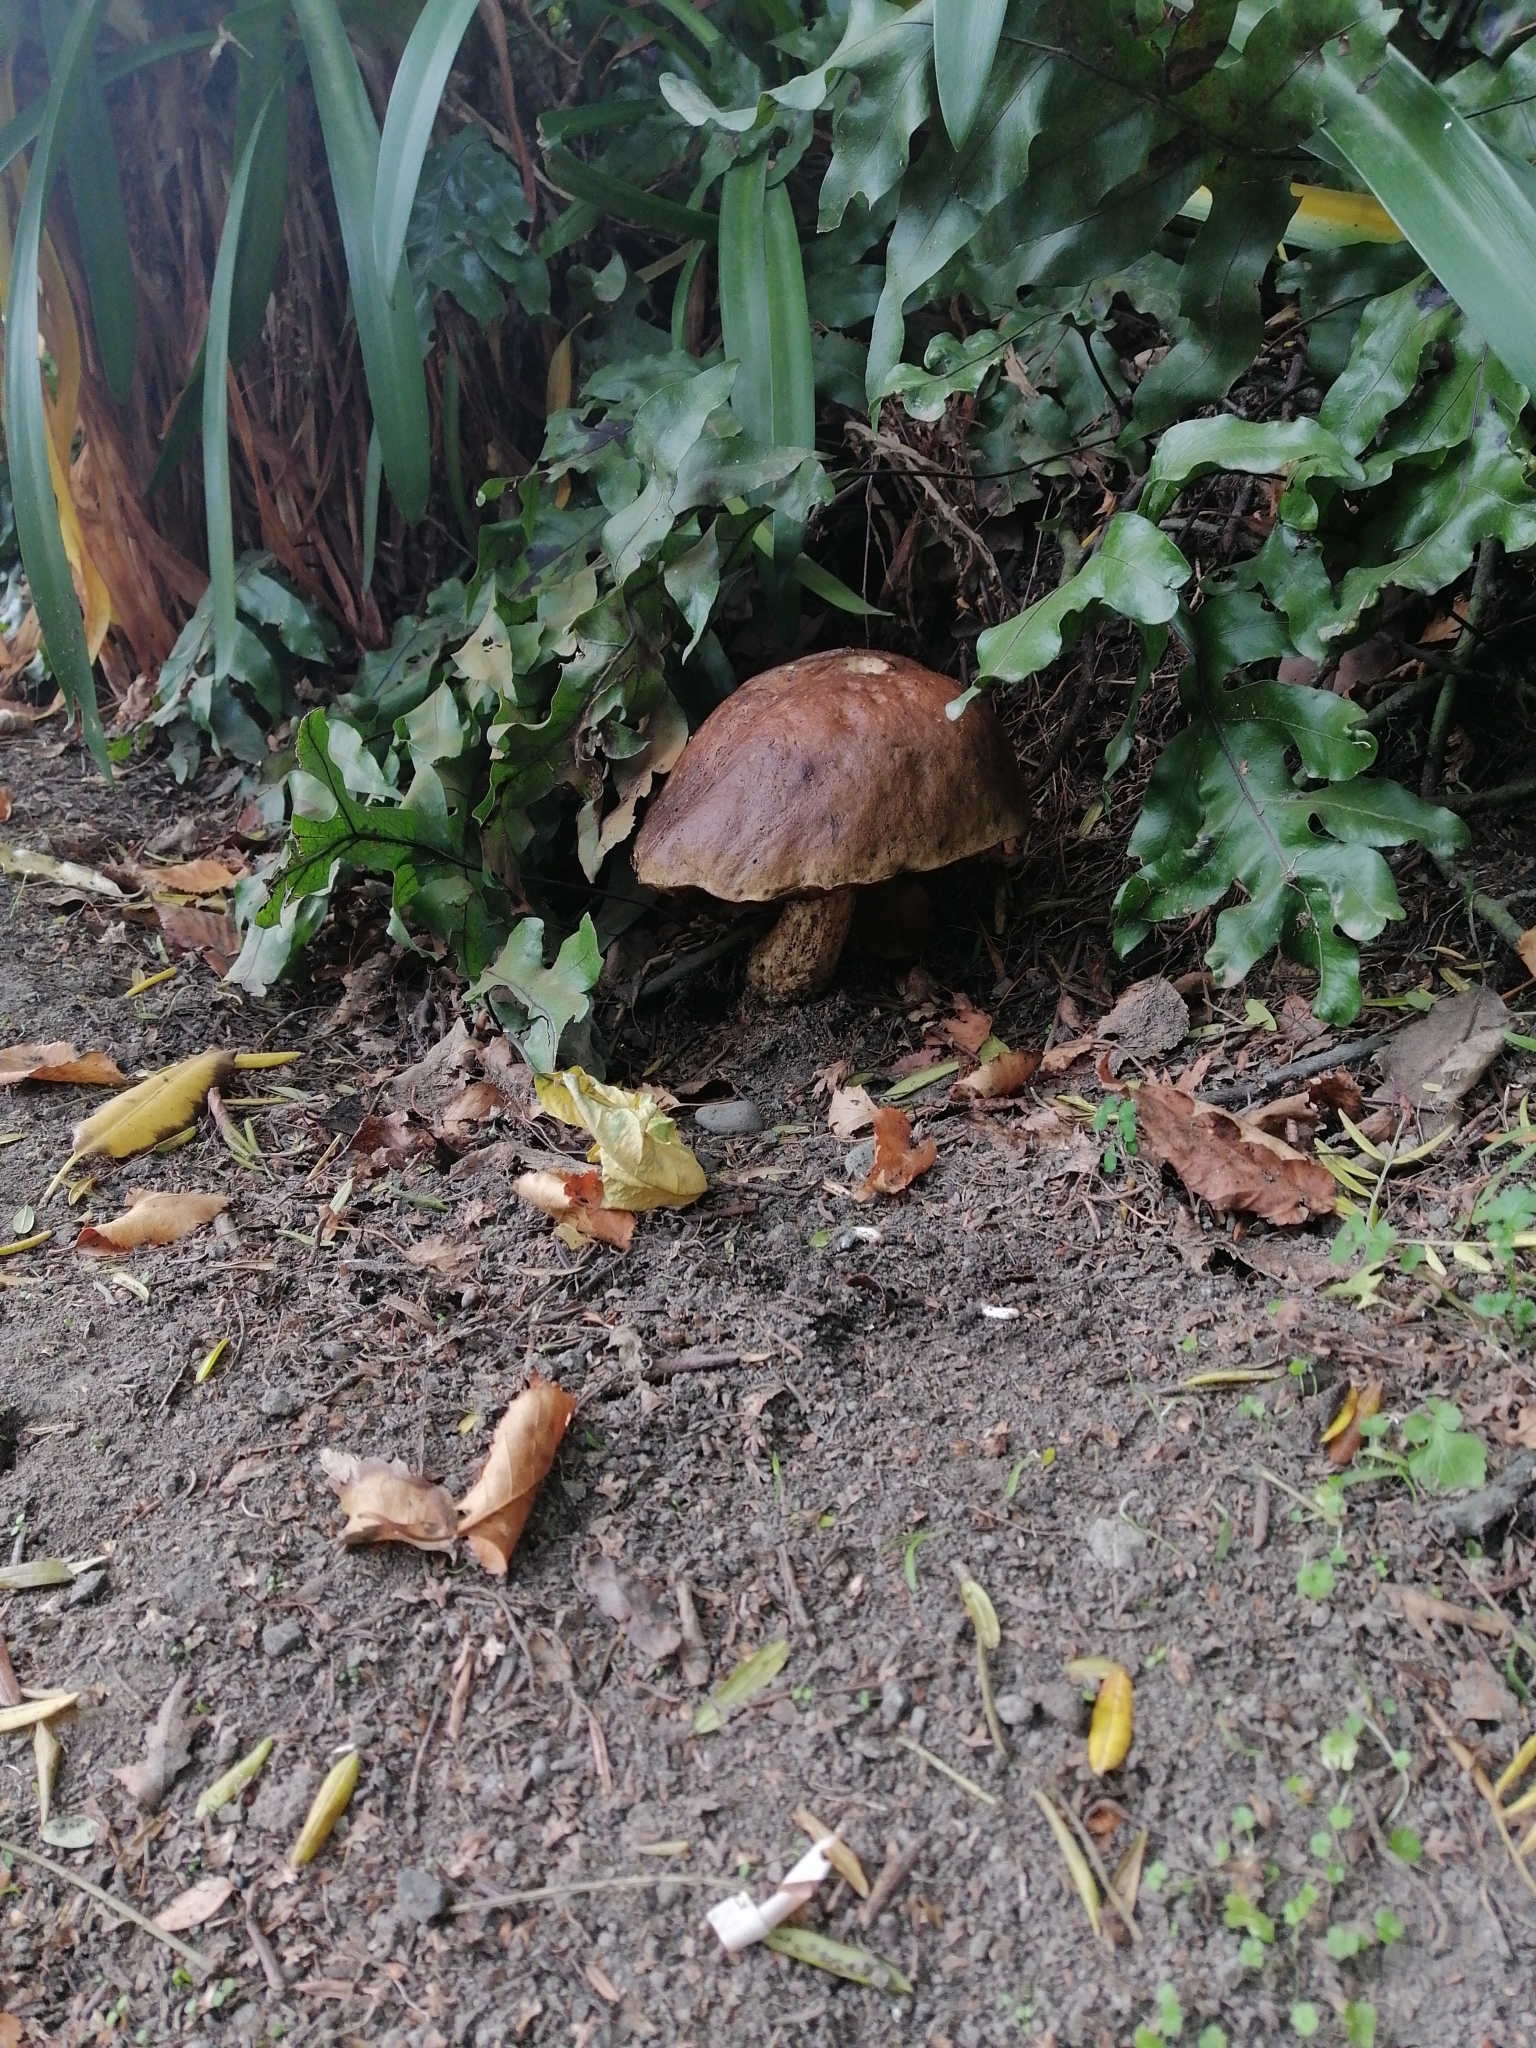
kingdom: Fungi
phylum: Basidiomycota
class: Agaricomycetes
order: Boletales
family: Boletaceae
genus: Leccinum
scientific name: Leccinum scabrum
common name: Blushing bolete
